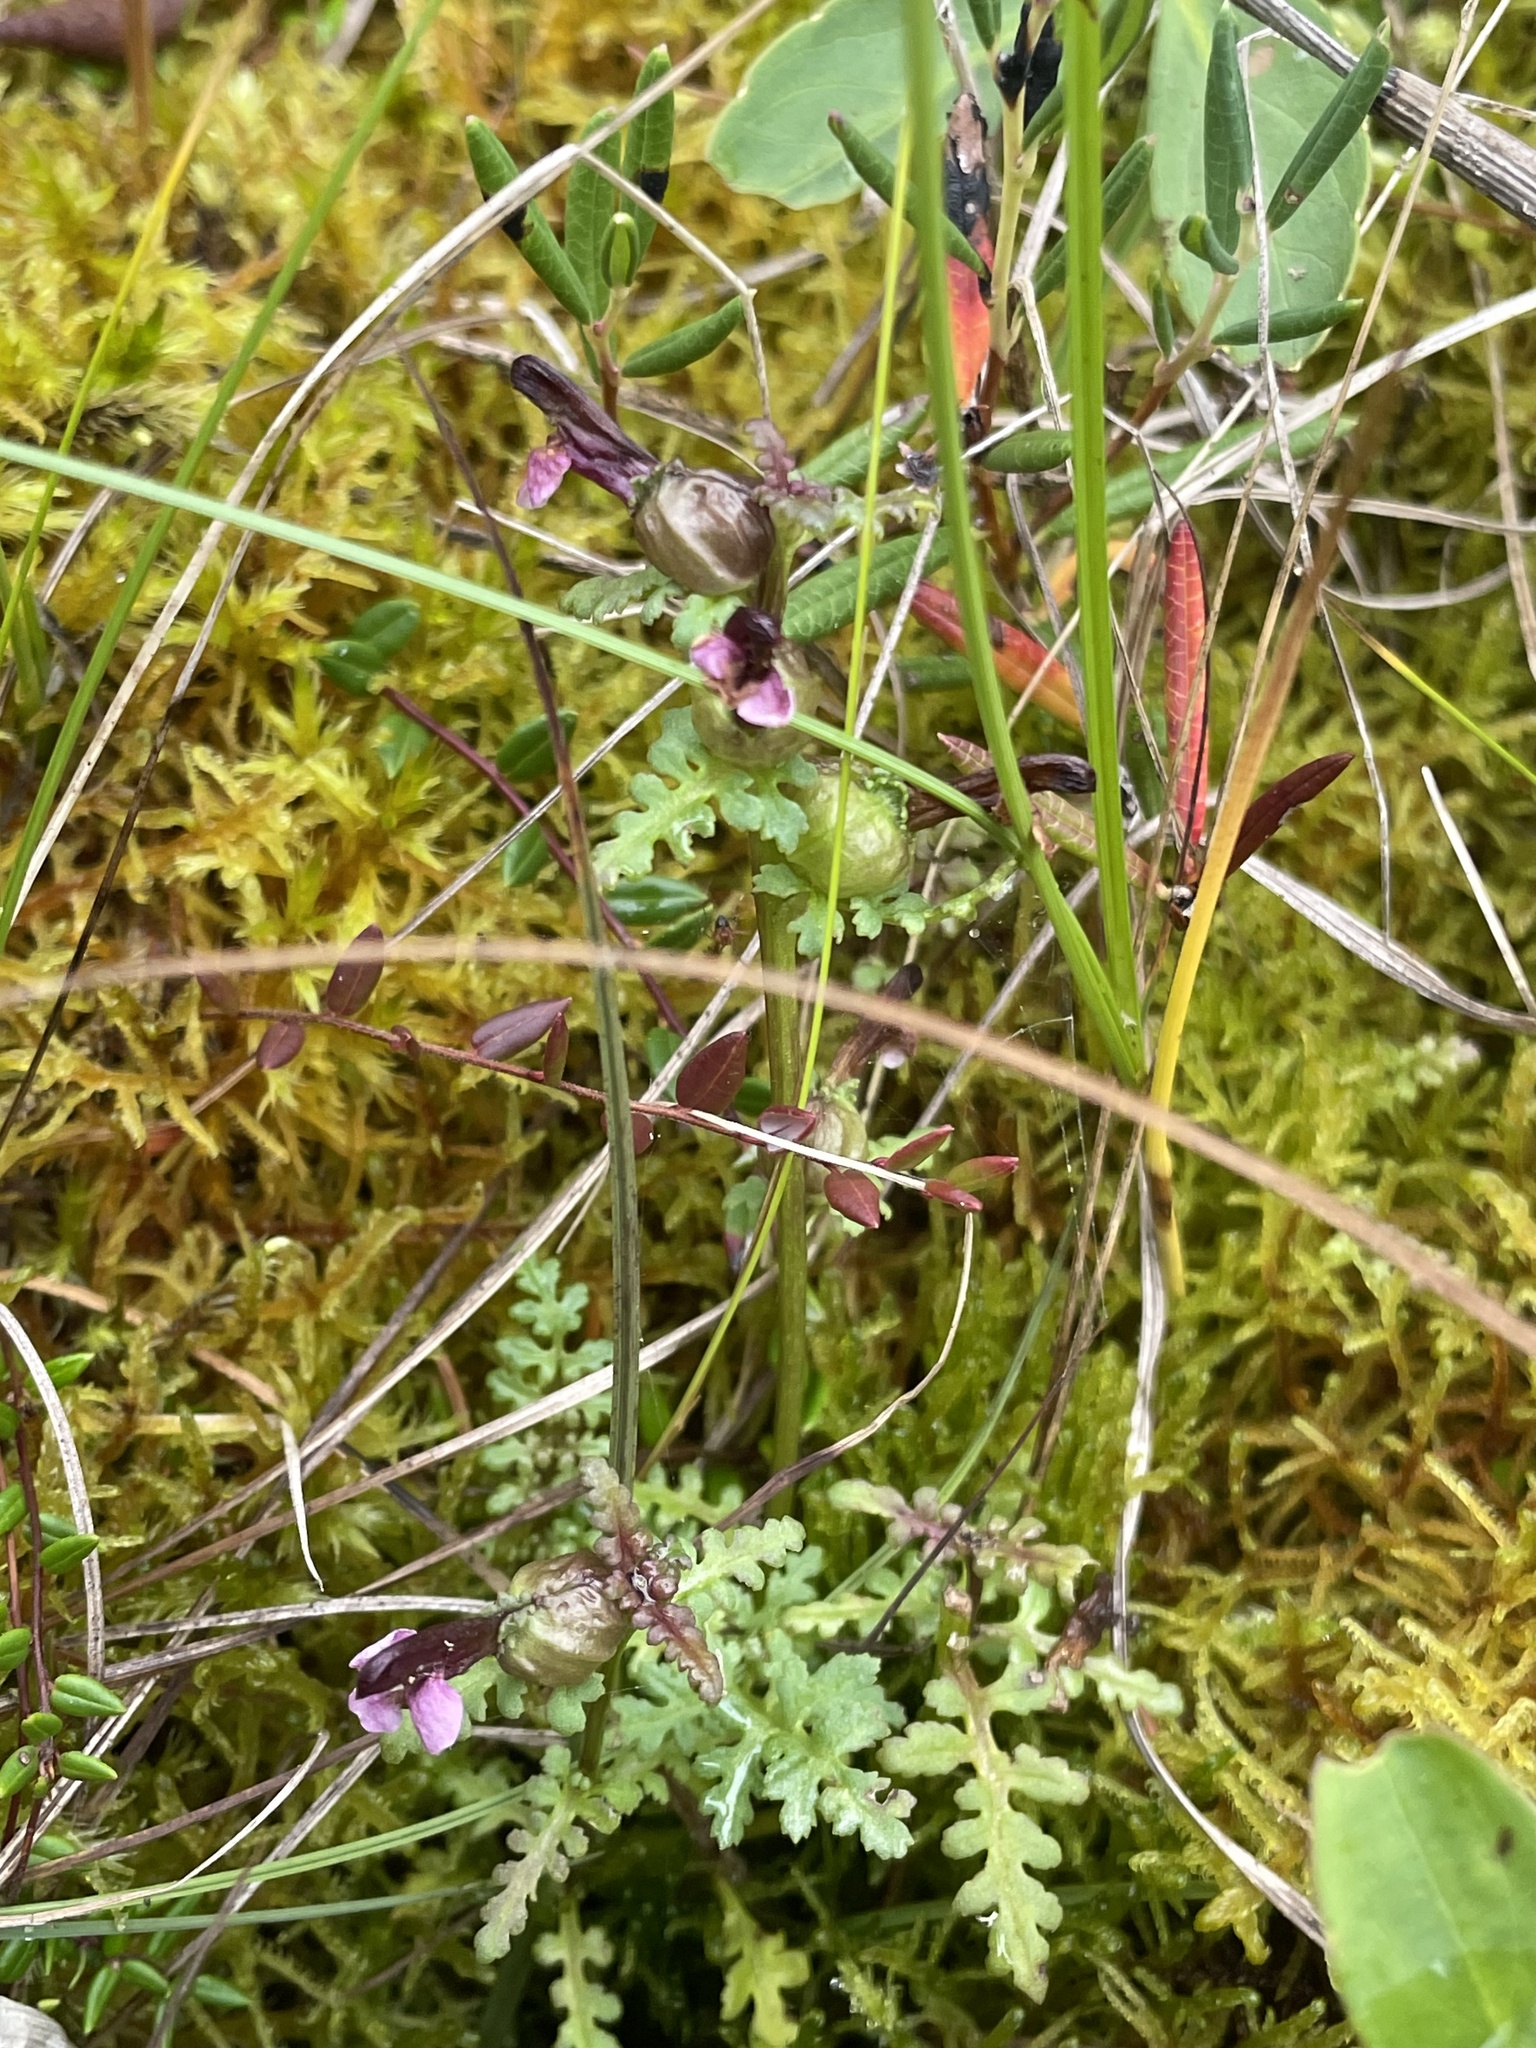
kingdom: Plantae
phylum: Tracheophyta
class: Magnoliopsida
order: Lamiales
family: Orobanchaceae
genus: Pedicularis
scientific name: Pedicularis parviflora
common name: Muskeg lousewort
